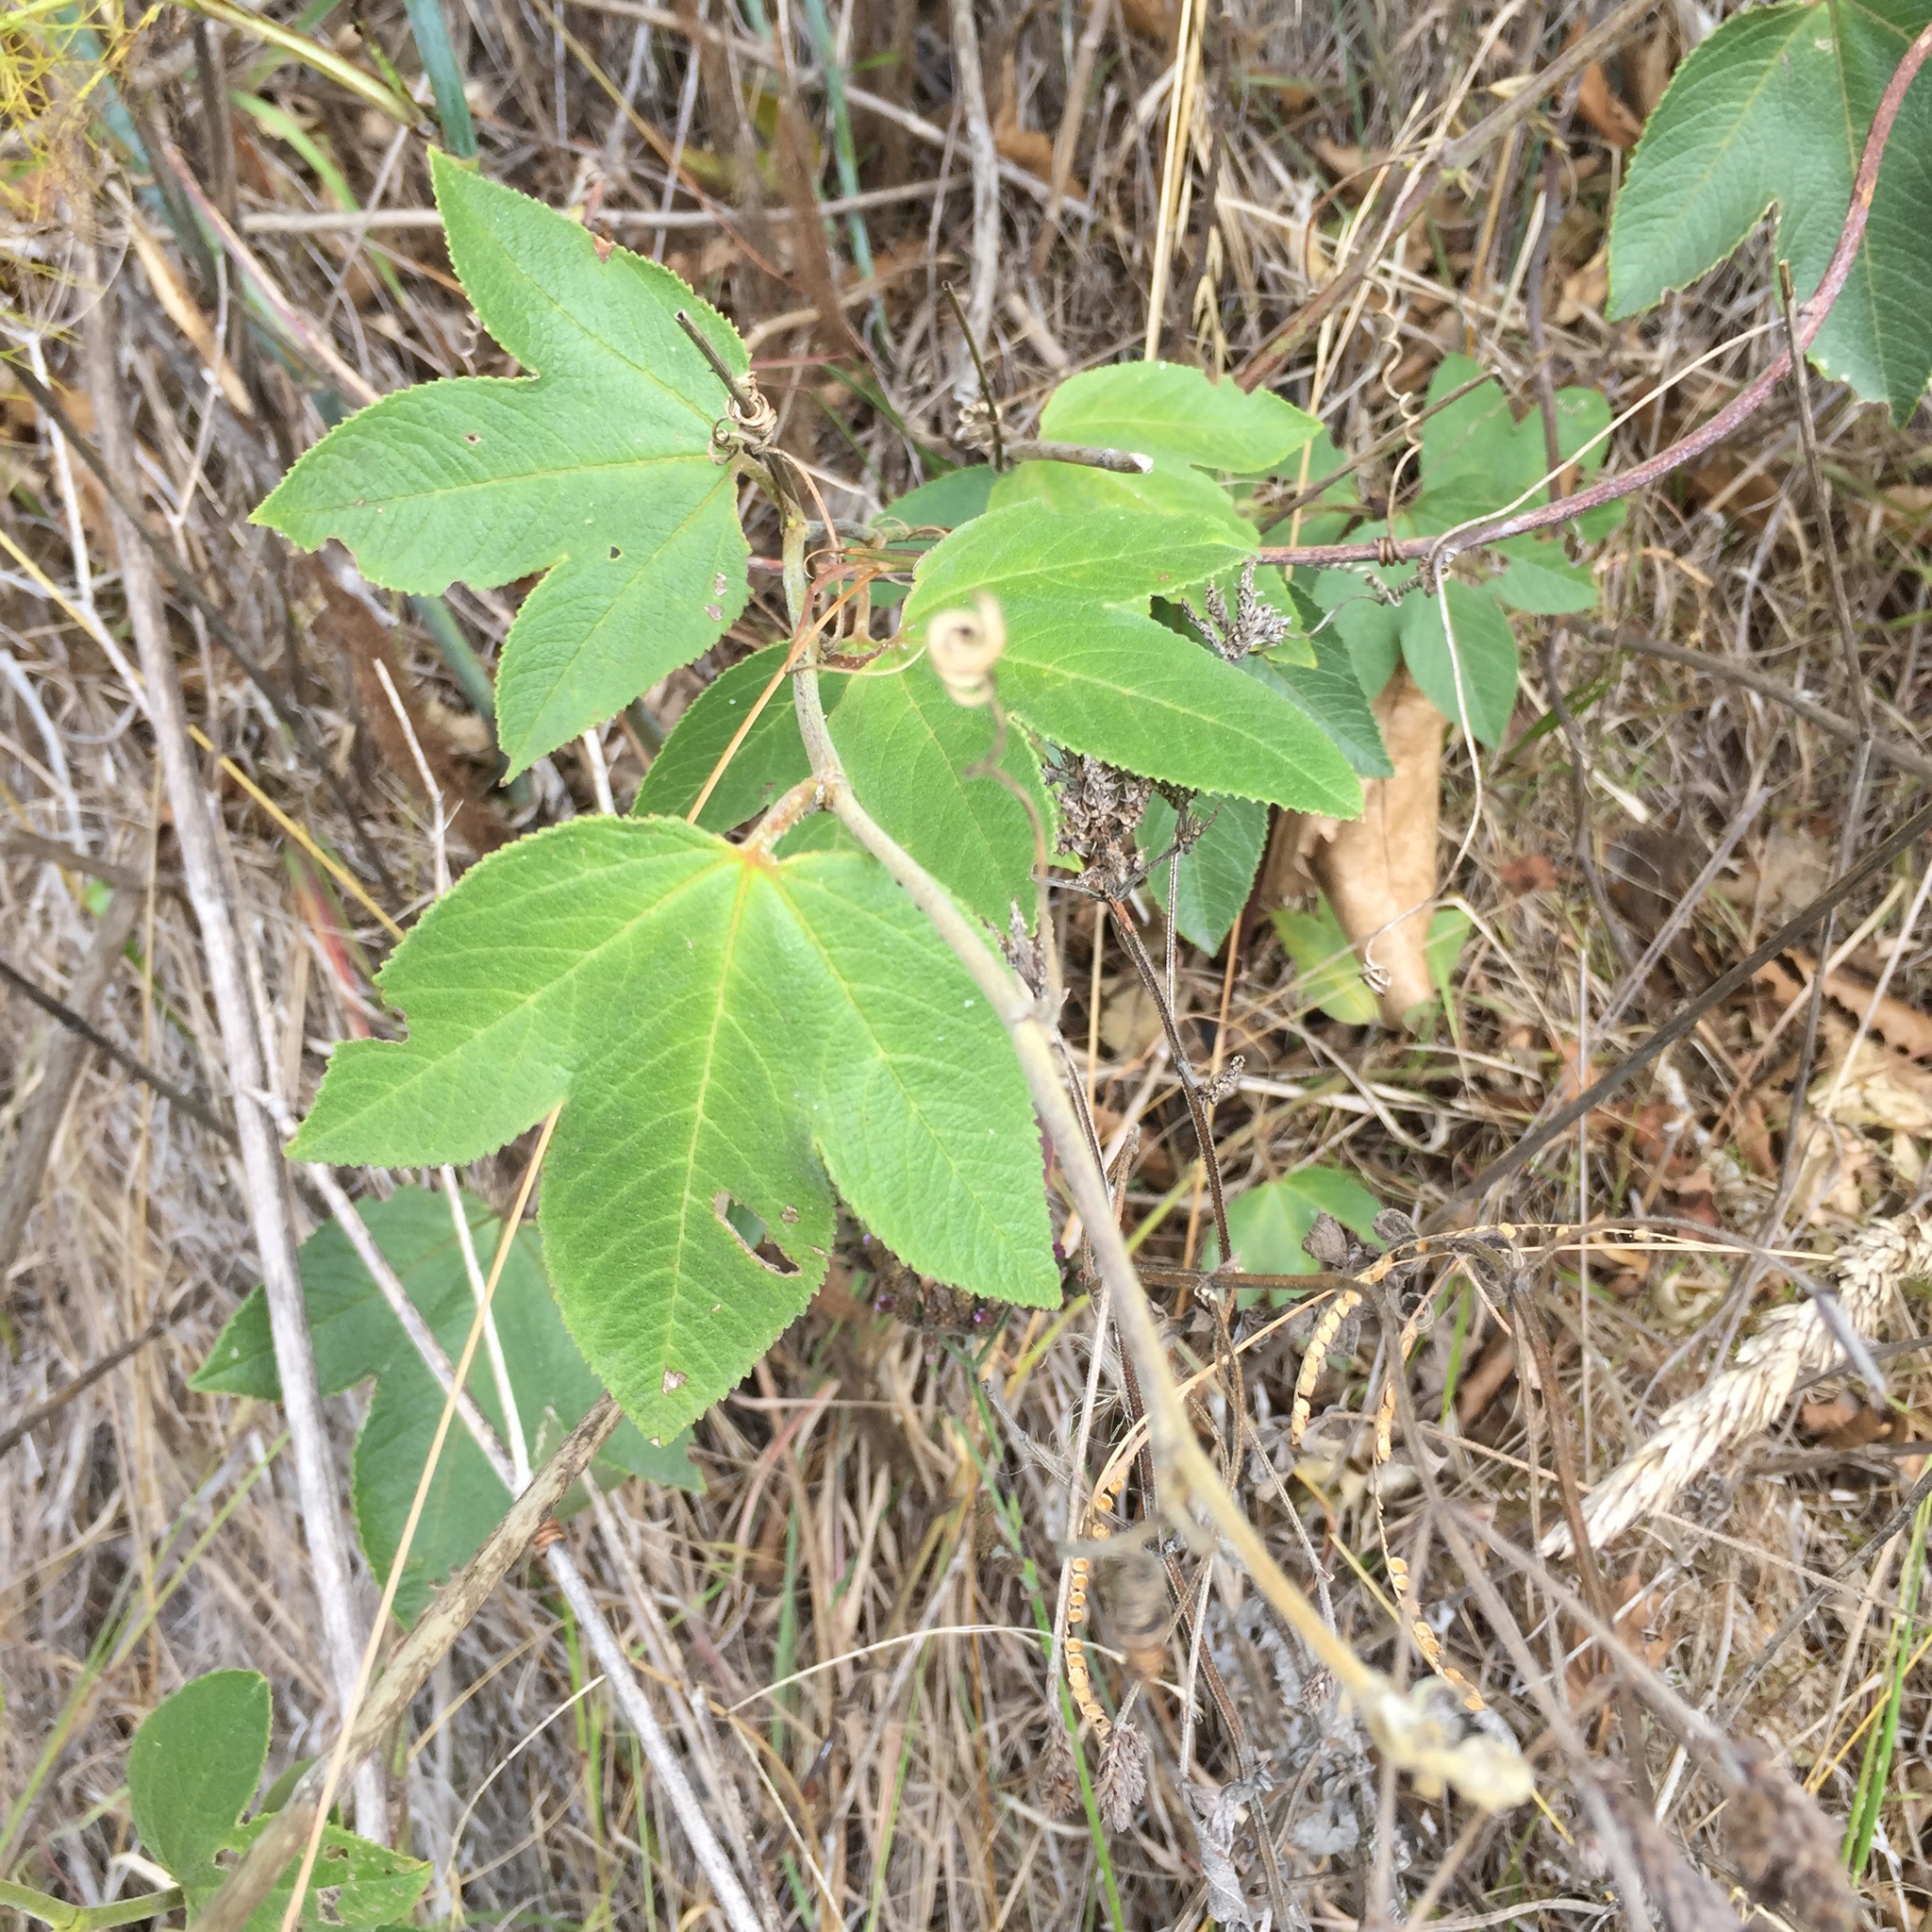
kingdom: Plantae
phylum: Tracheophyta
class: Magnoliopsida
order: Malpighiales
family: Passifloraceae
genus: Passiflora
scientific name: Passiflora tripartita
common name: Banana poka
